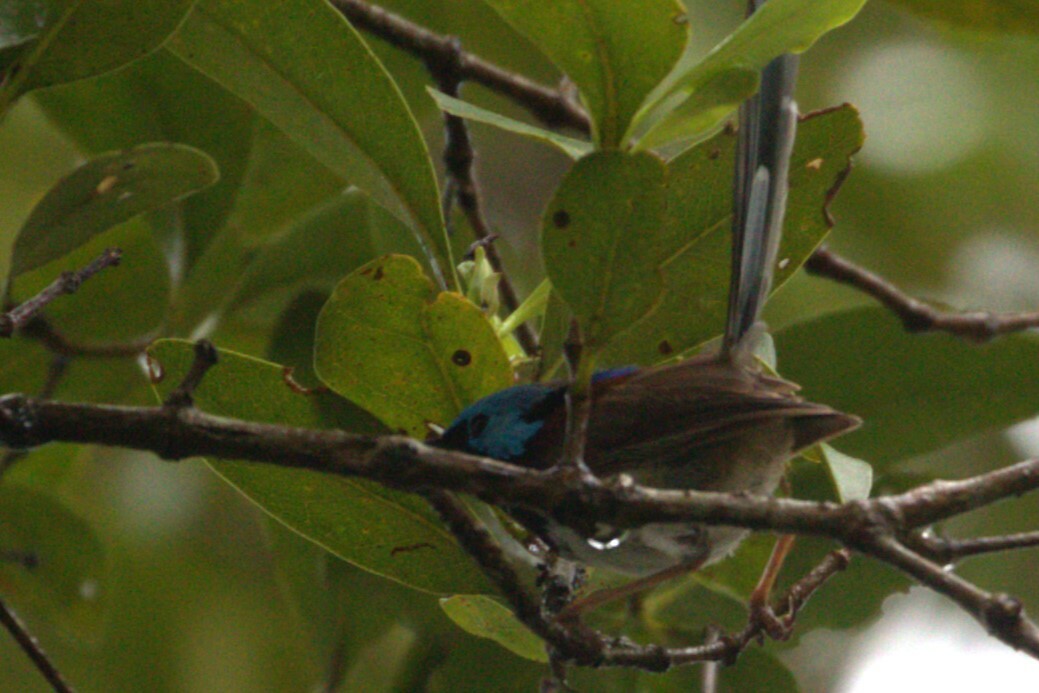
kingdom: Animalia
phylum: Chordata
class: Aves
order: Passeriformes
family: Maluridae
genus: Malurus
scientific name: Malurus lamberti
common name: Variegated fairywren
